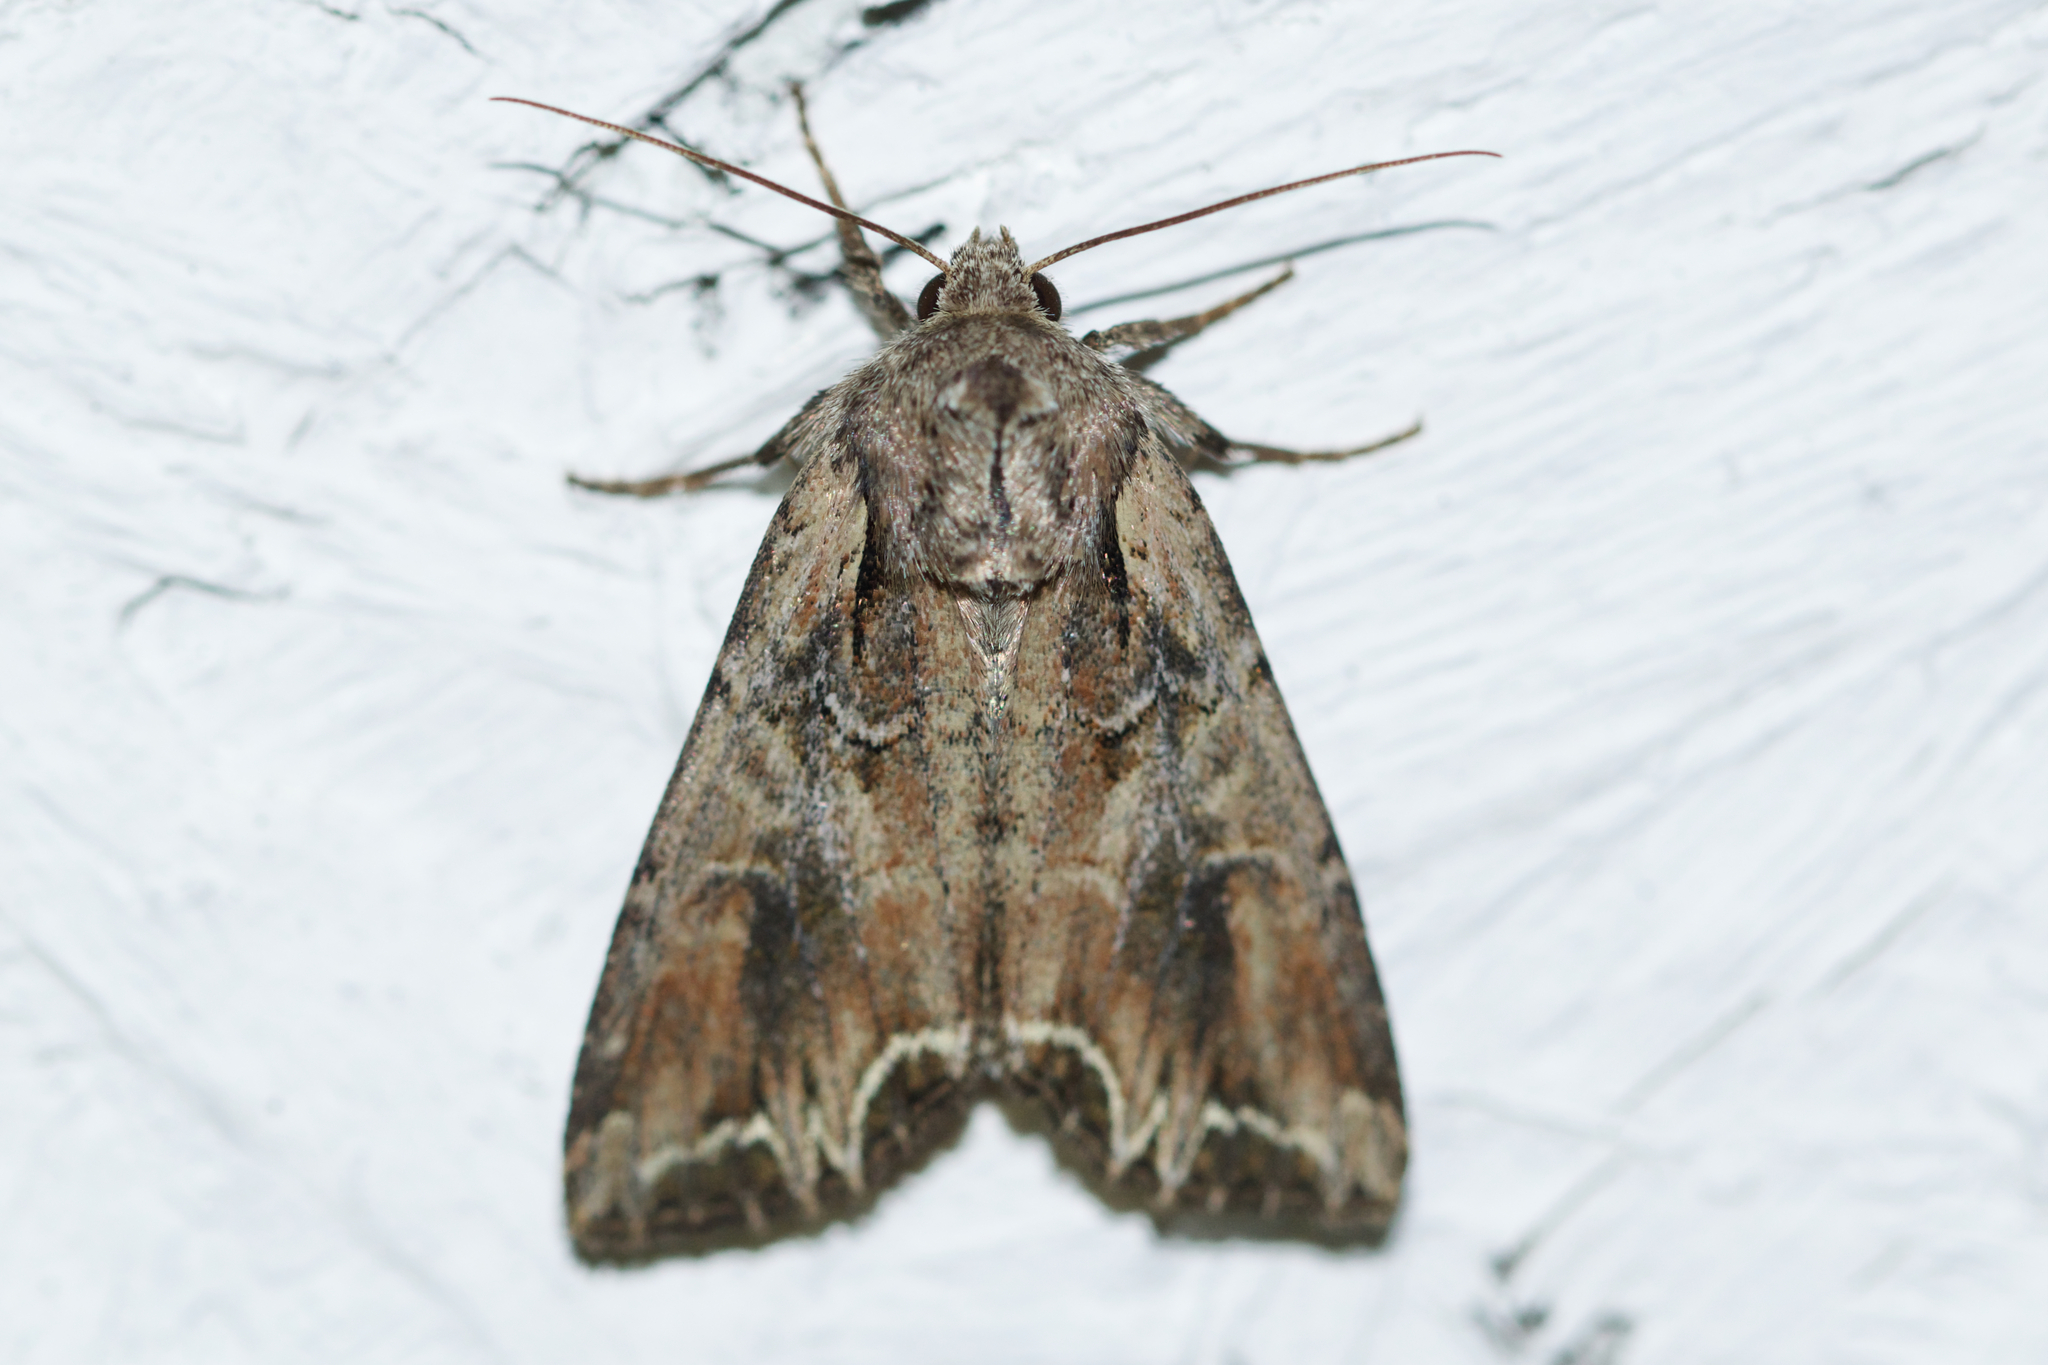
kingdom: Animalia
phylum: Arthropoda
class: Insecta
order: Lepidoptera
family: Noctuidae
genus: Lacanobia
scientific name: Lacanobia atlantica
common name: Atlantic arches moth
